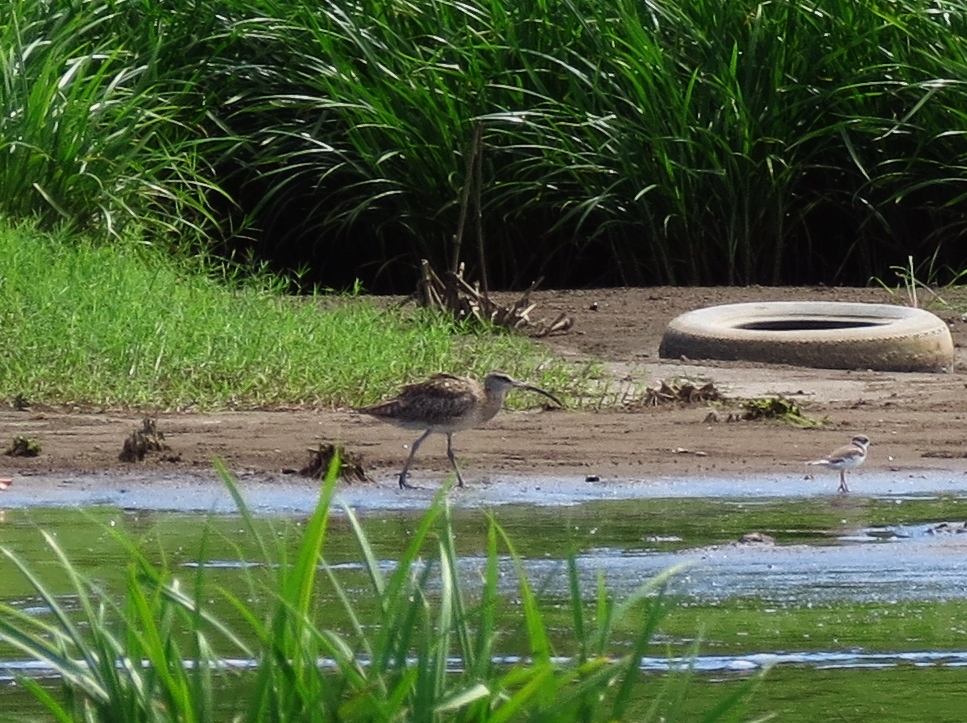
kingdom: Animalia
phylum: Chordata
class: Aves
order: Charadriiformes
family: Scolopacidae
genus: Numenius
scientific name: Numenius phaeopus
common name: Whimbrel
